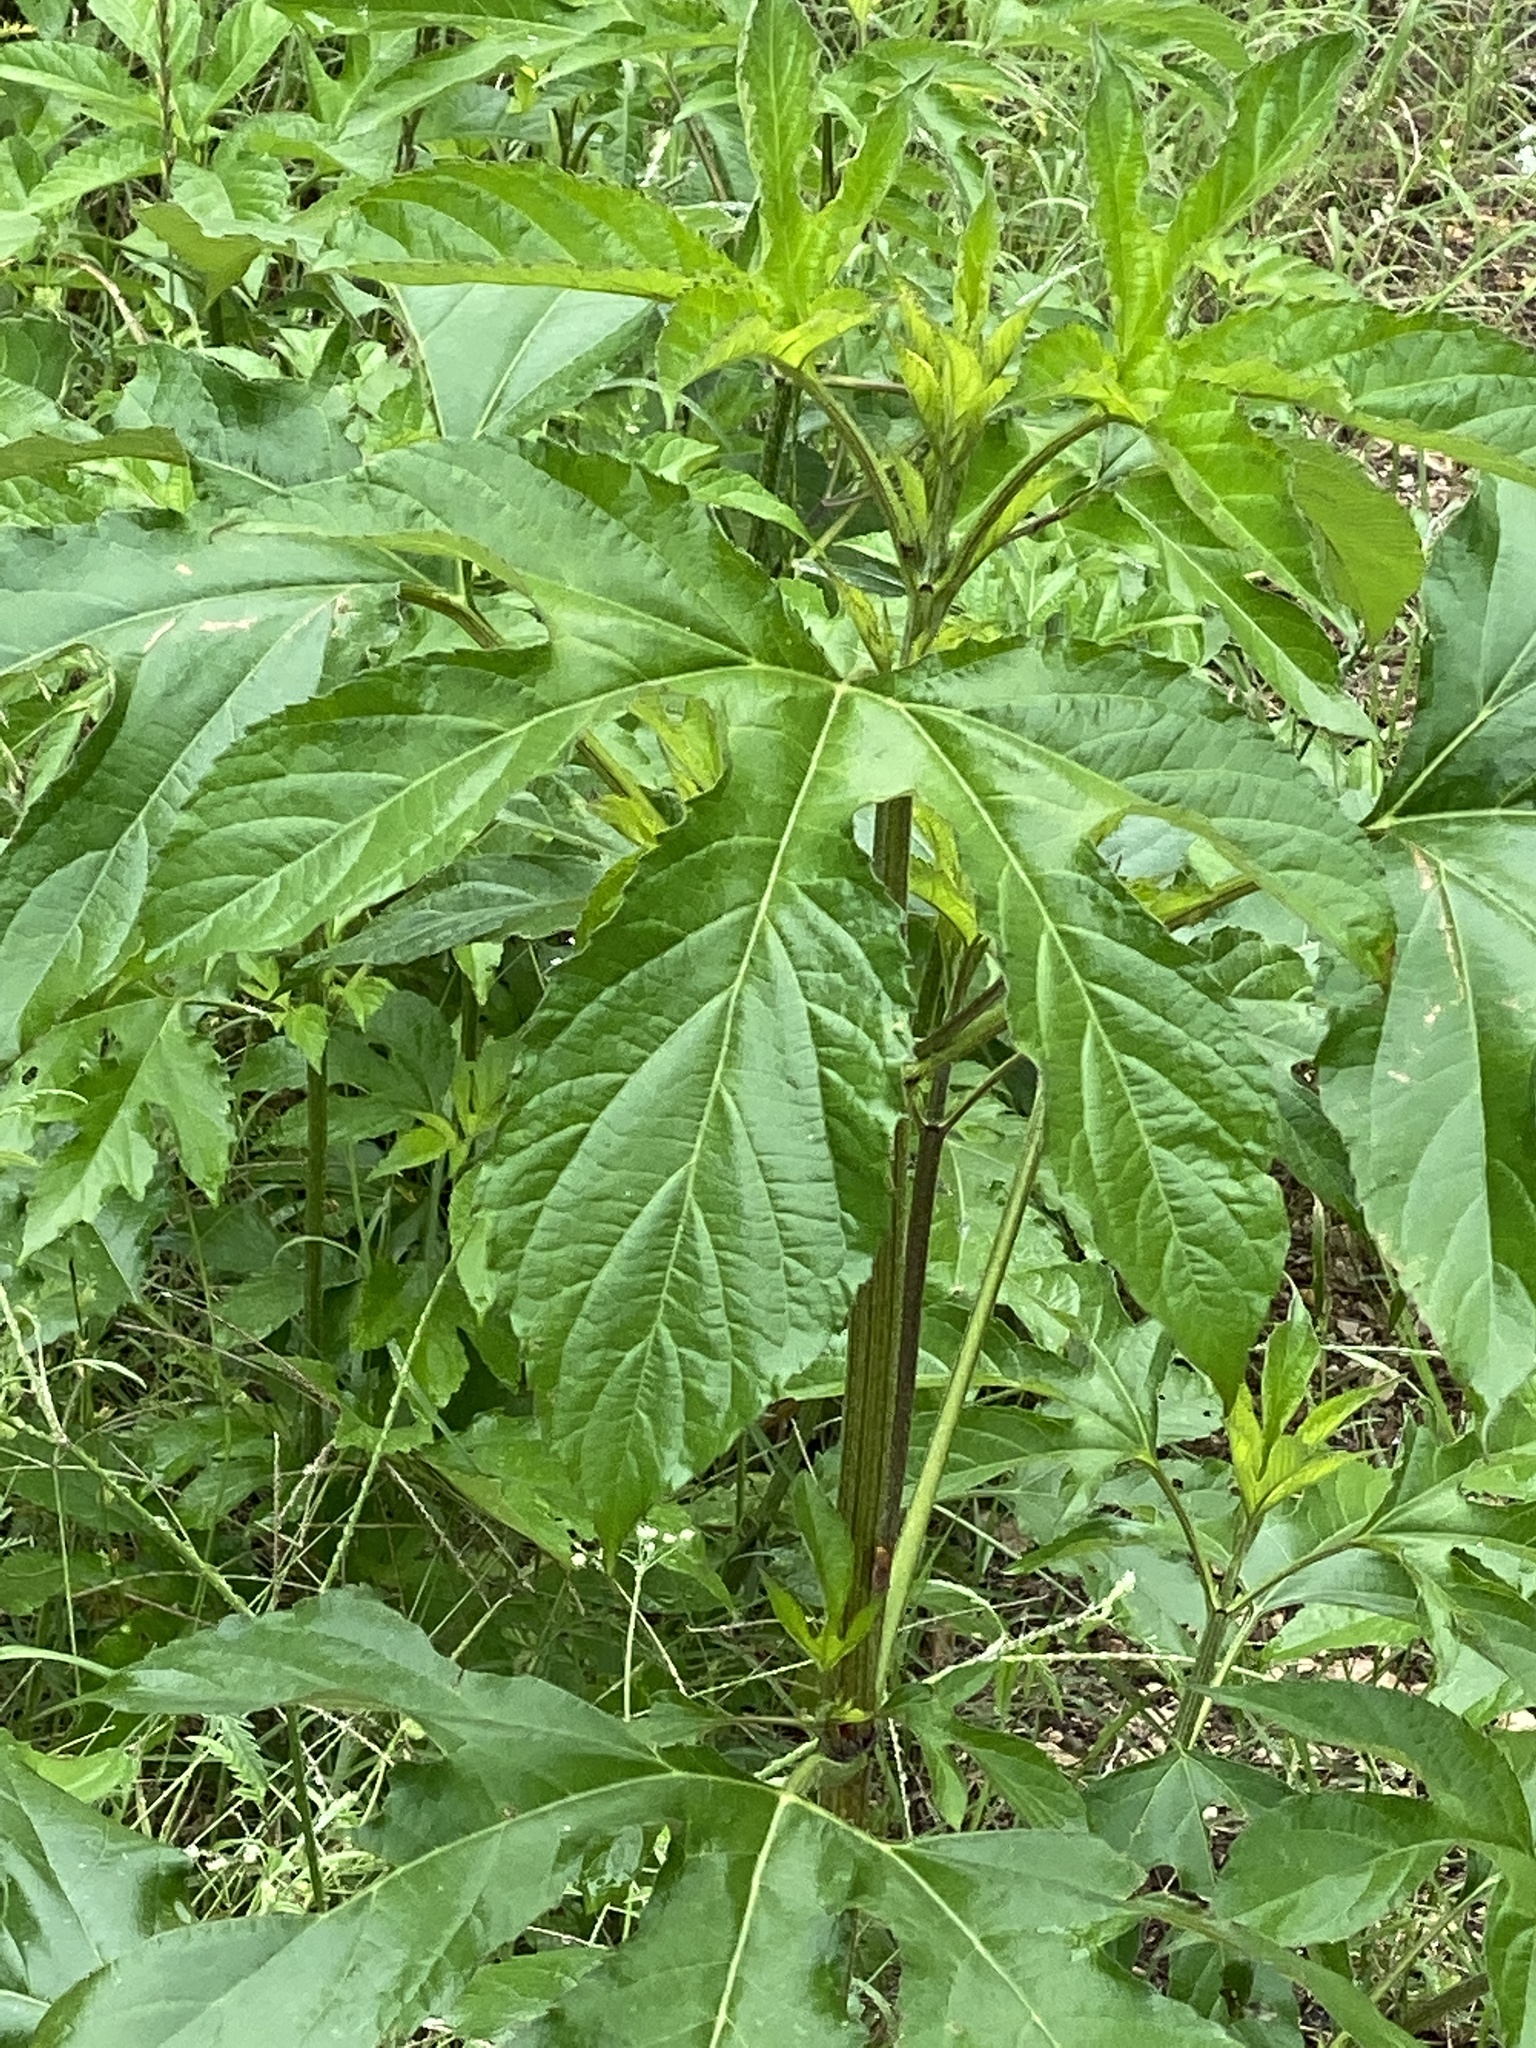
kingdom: Plantae
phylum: Tracheophyta
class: Magnoliopsida
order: Asterales
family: Asteraceae
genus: Ambrosia
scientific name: Ambrosia trifida
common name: Giant ragweed
